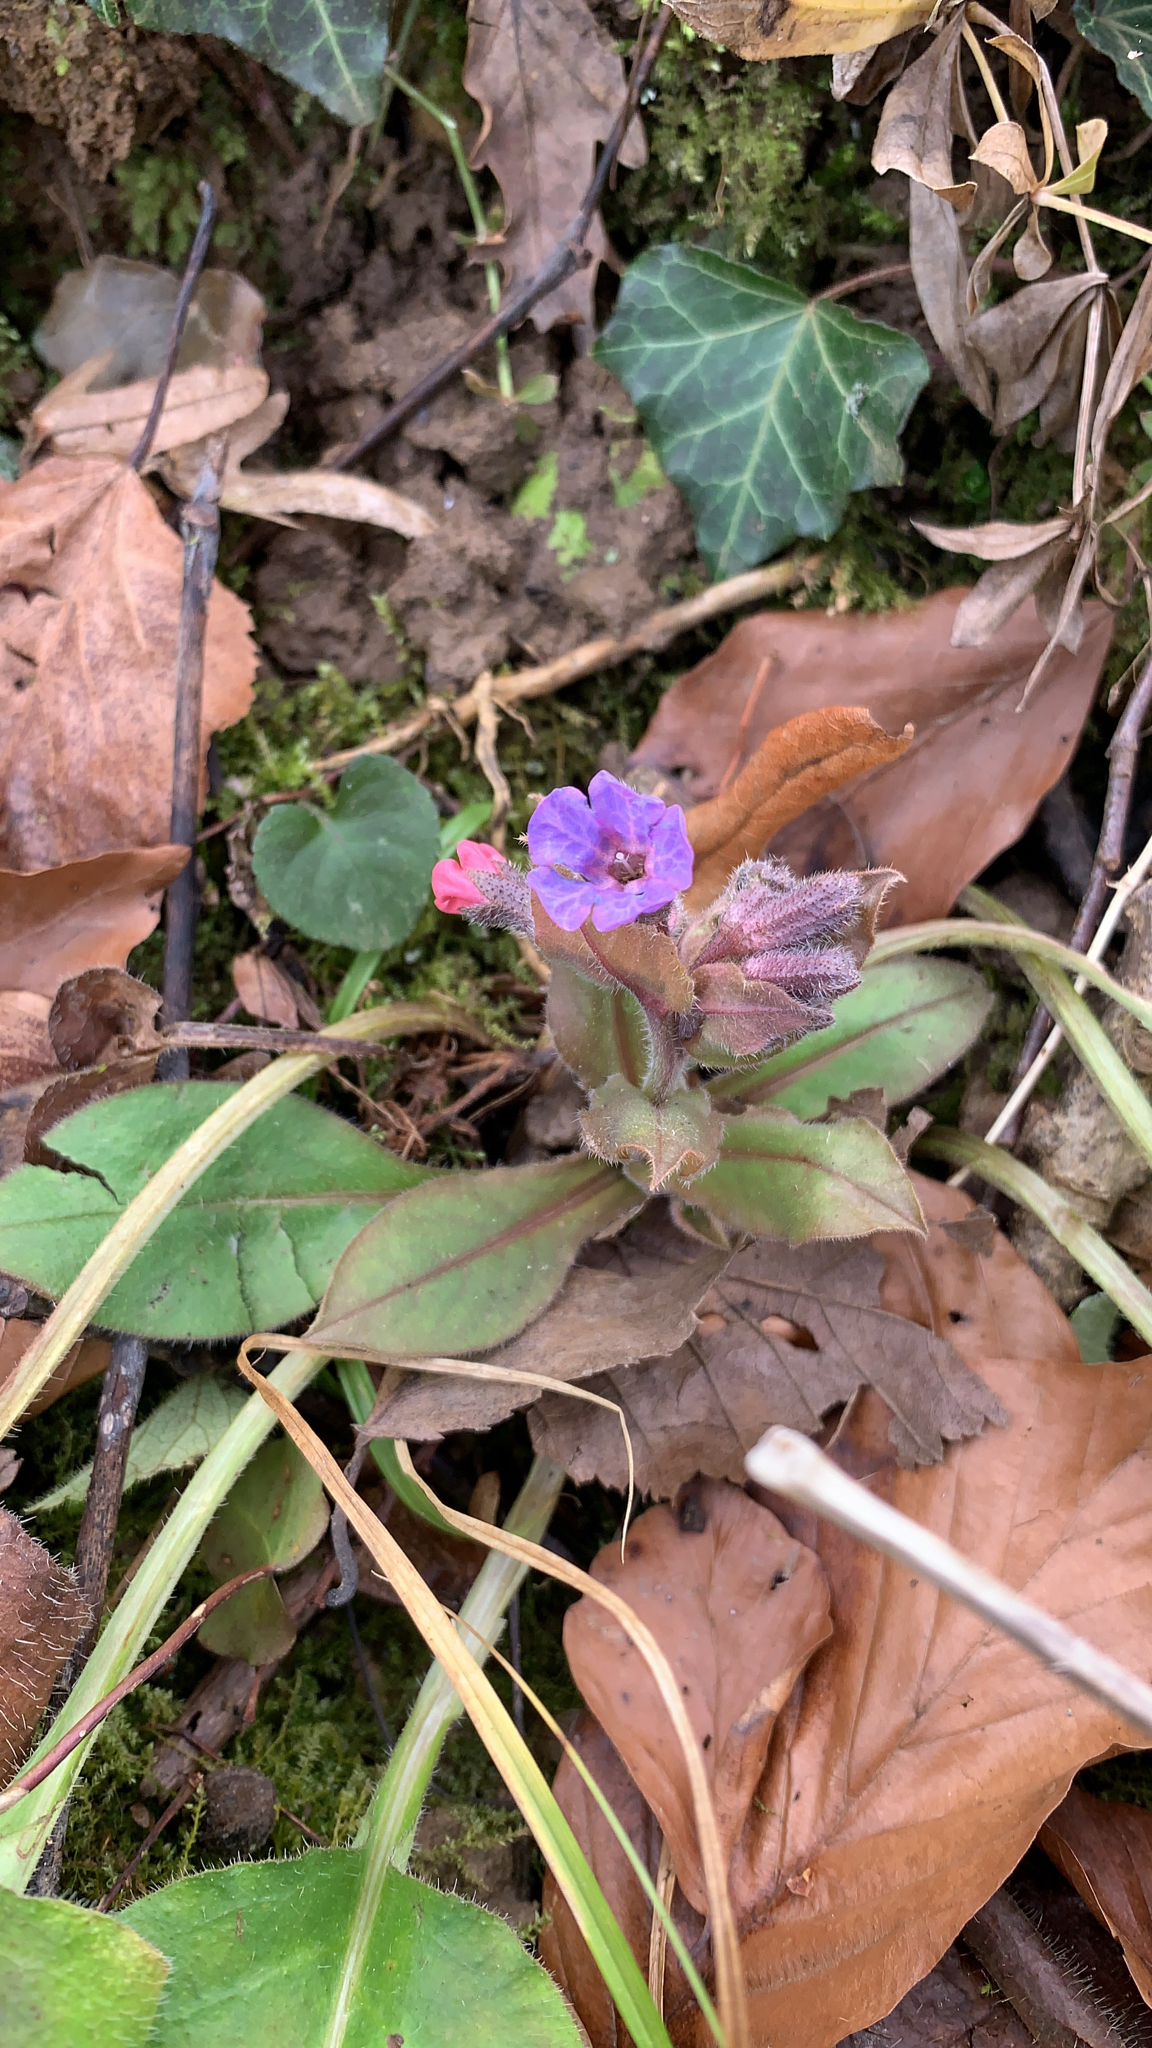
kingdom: Plantae
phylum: Tracheophyta
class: Magnoliopsida
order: Boraginales
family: Boraginaceae
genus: Pulmonaria
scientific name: Pulmonaria officinalis
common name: Lungwort
